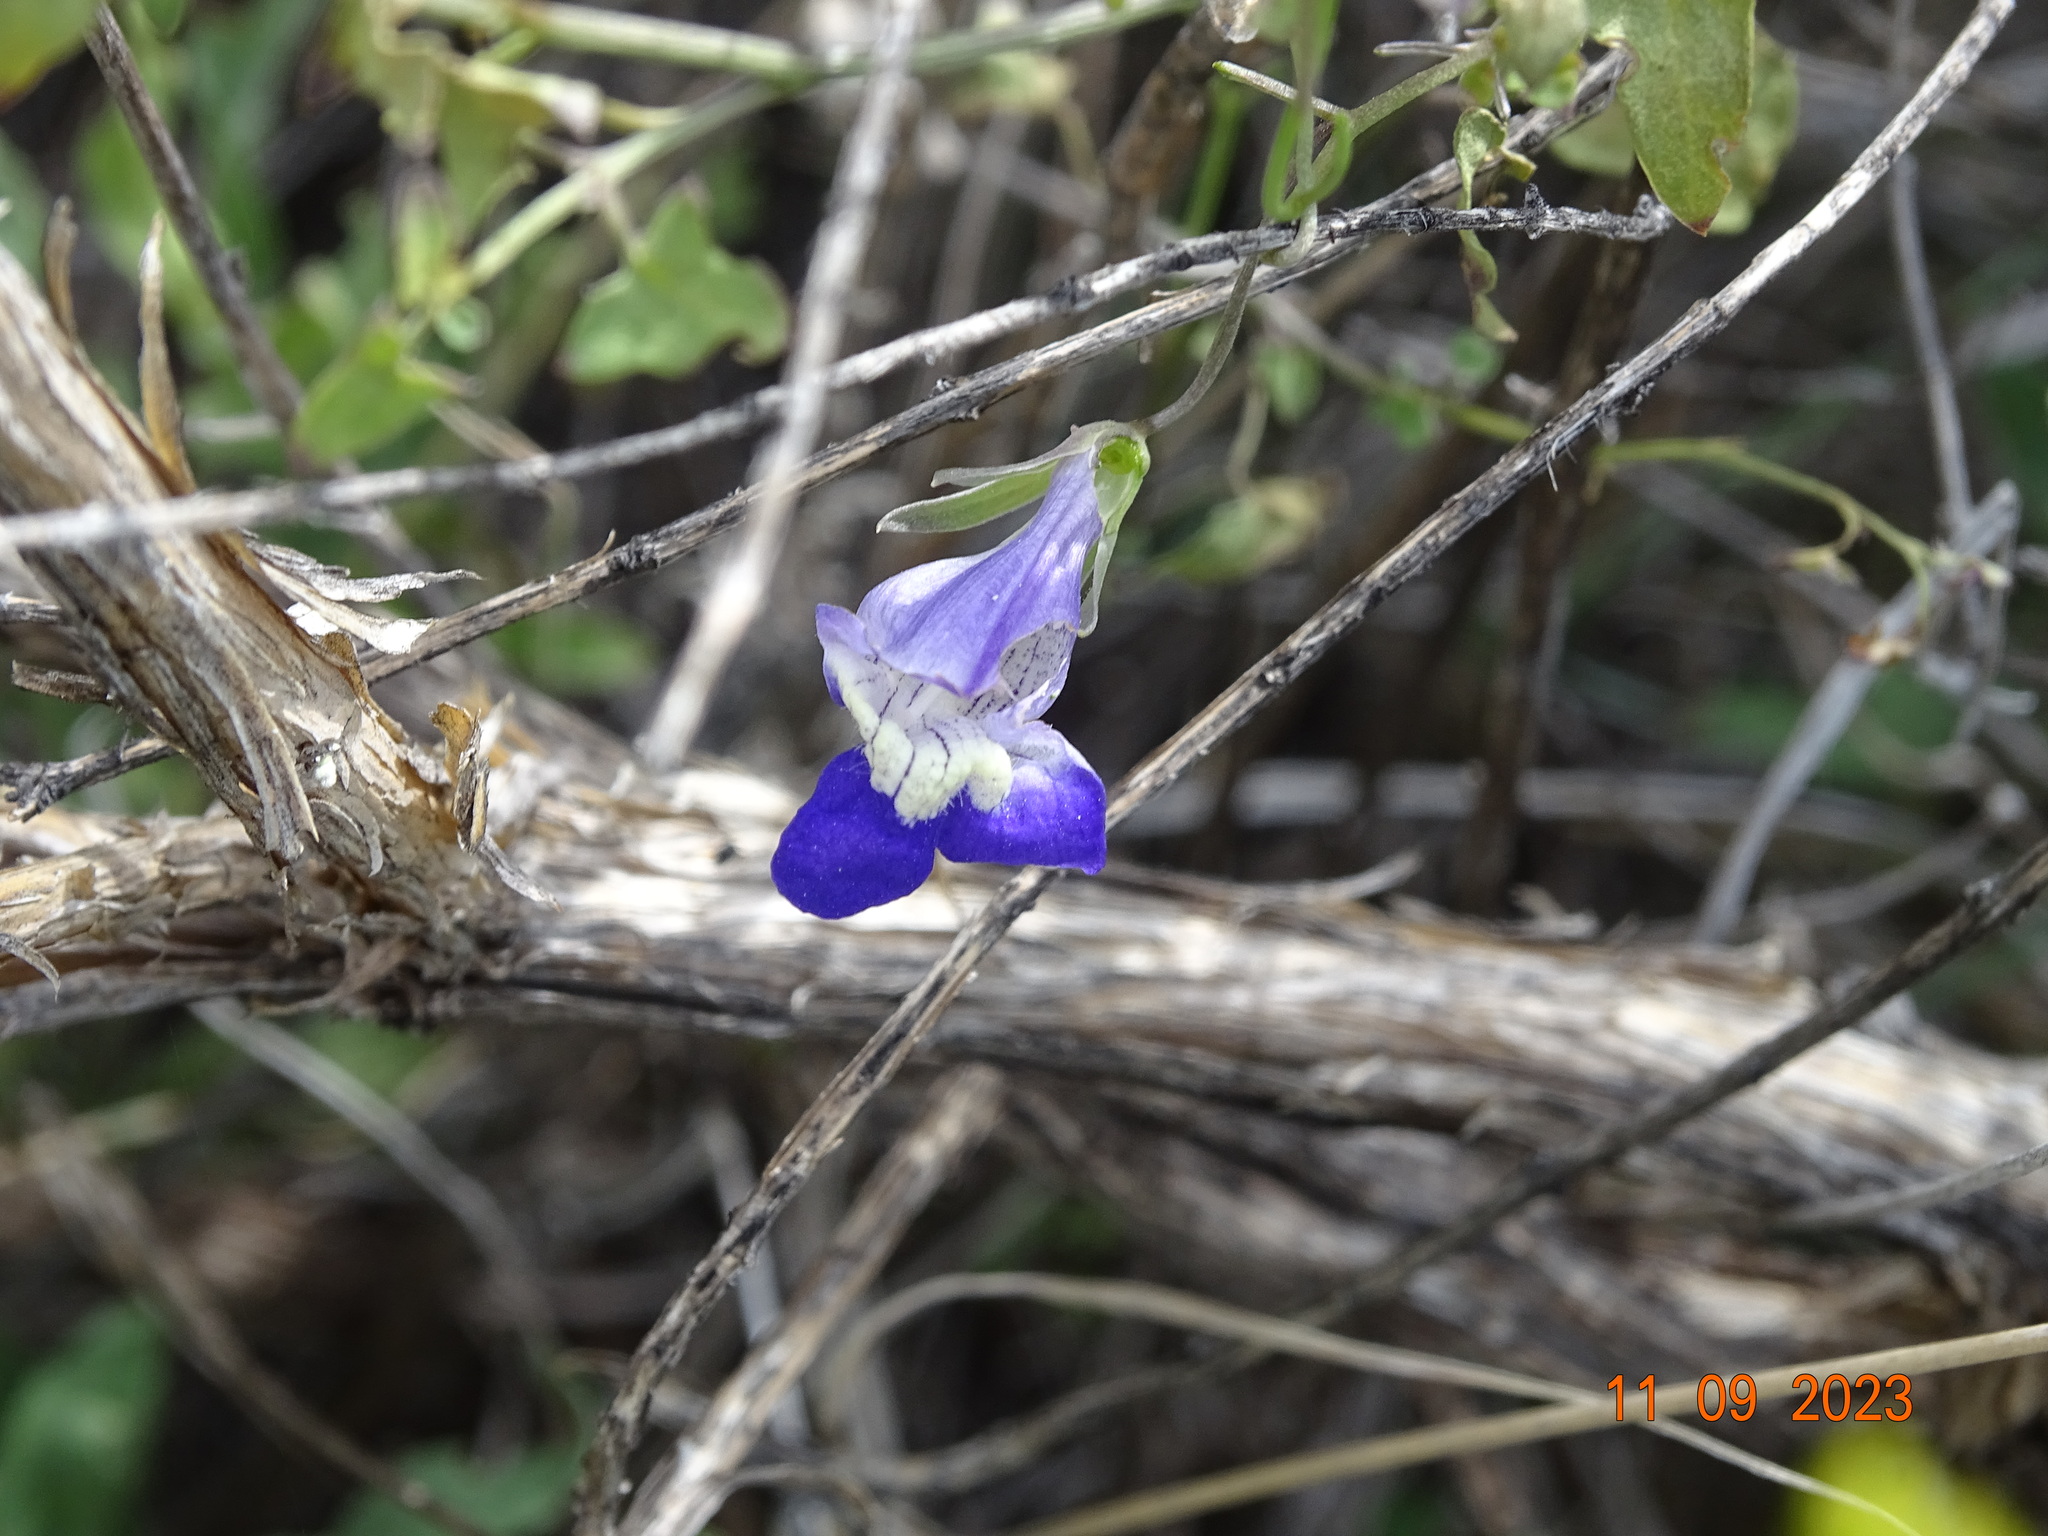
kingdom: Plantae
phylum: Tracheophyta
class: Magnoliopsida
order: Lamiales
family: Plantaginaceae
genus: Maurandella
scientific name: Maurandella antirrhiniflora
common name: Violet twining-snapdragon
